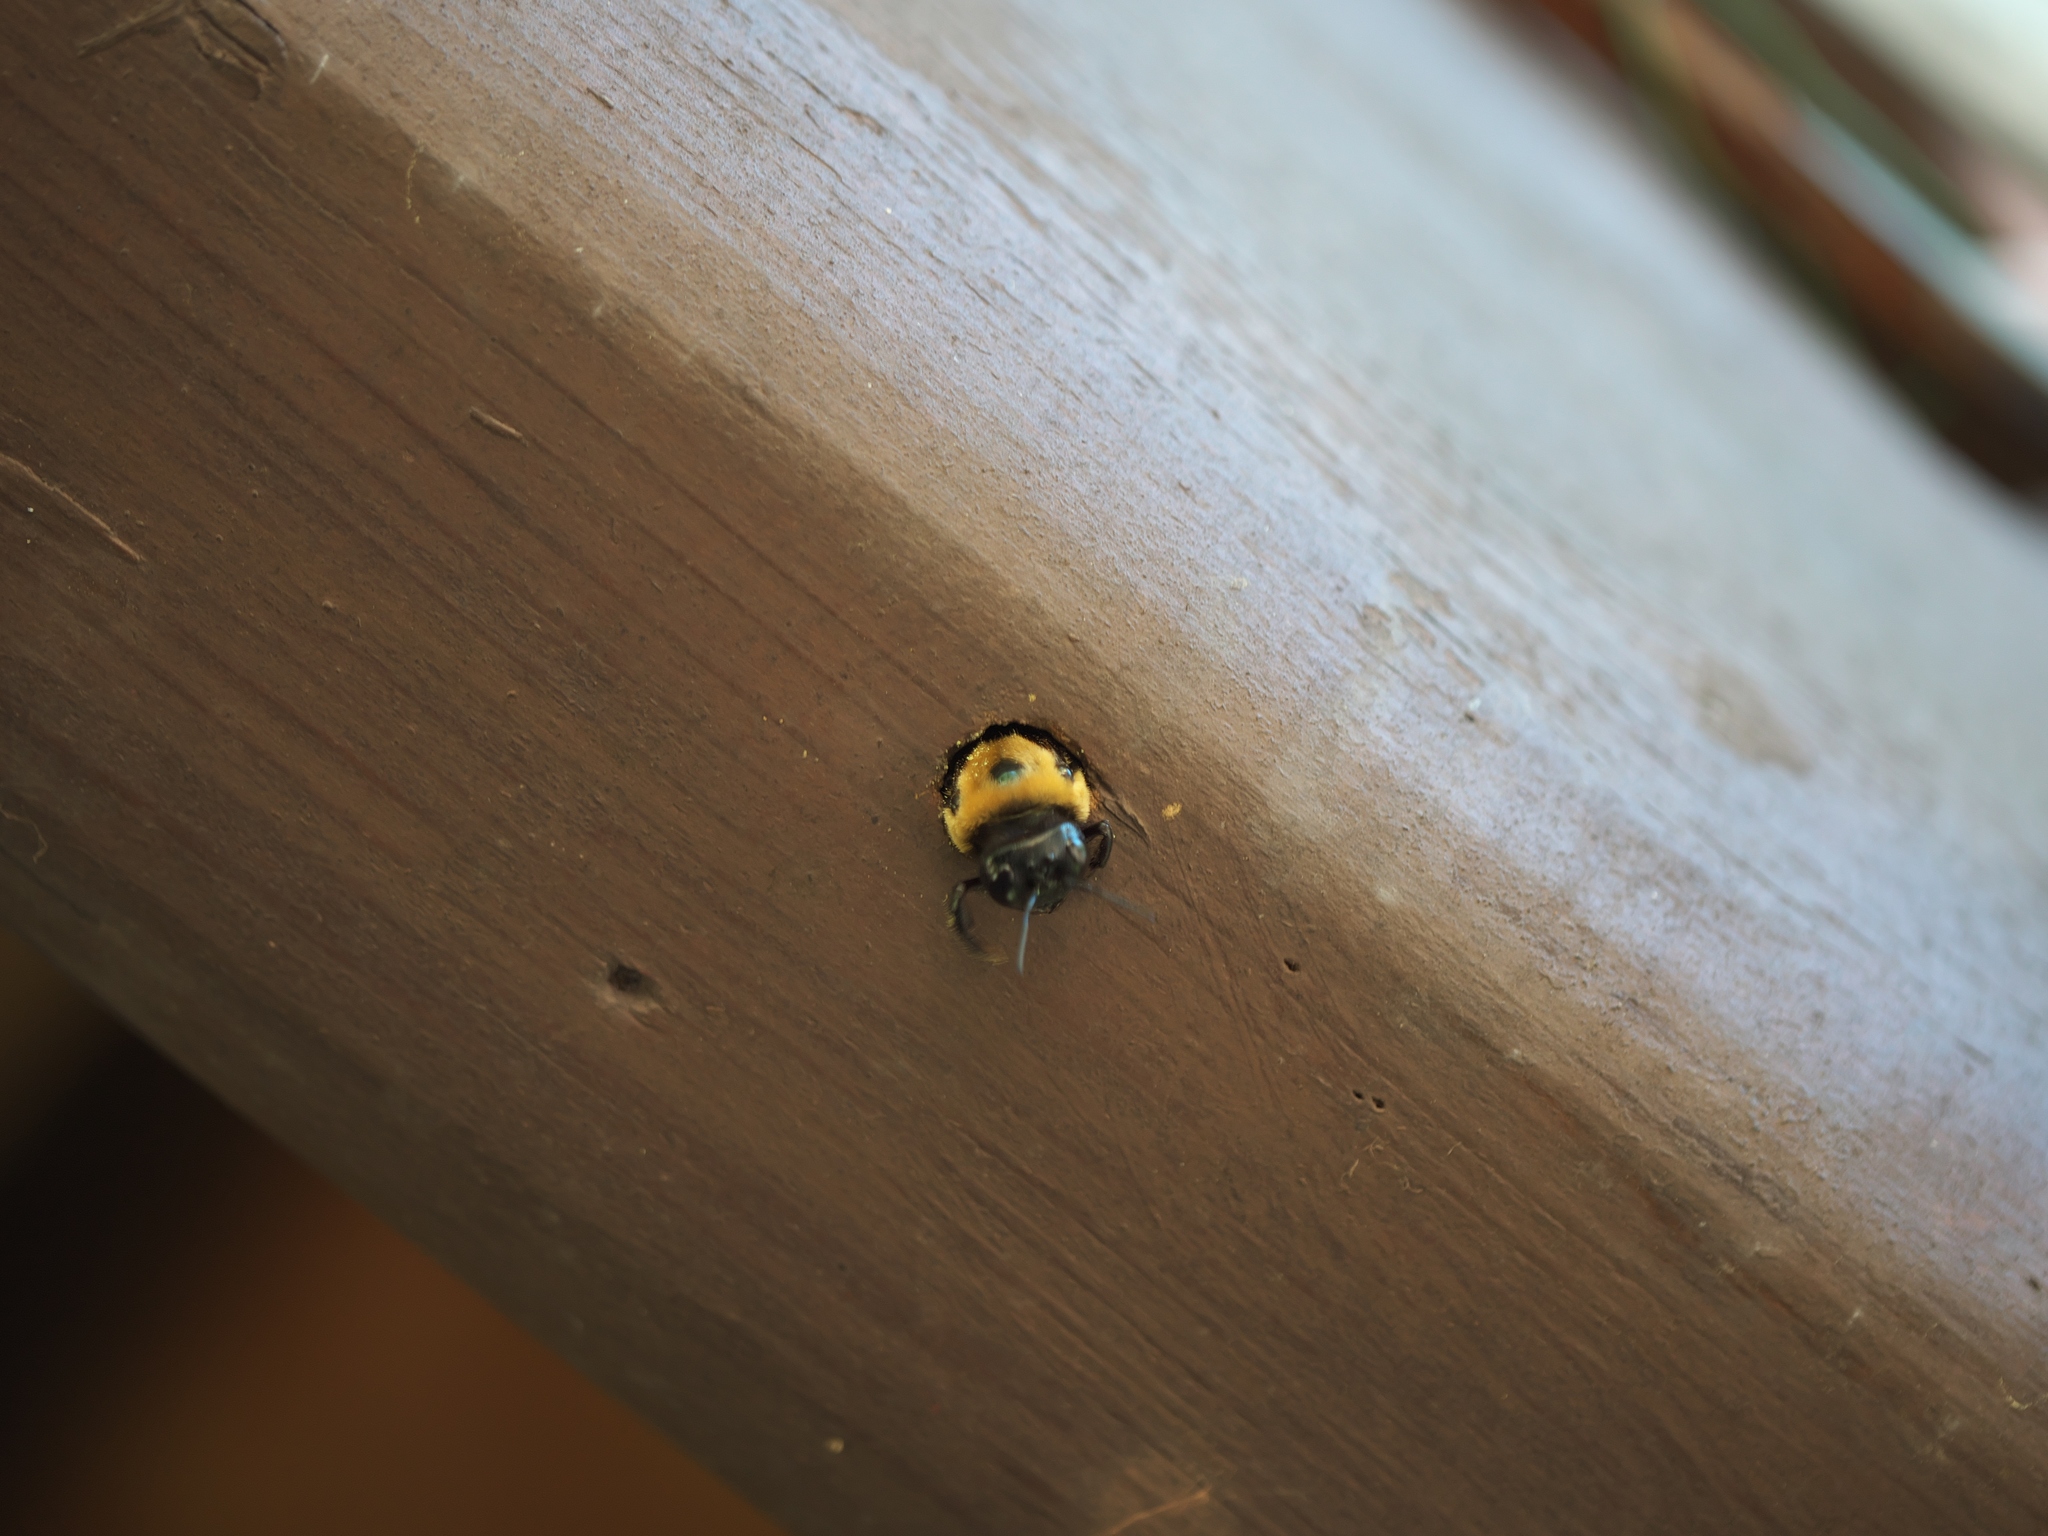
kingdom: Animalia
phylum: Arthropoda
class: Insecta
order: Hymenoptera
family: Apidae
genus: Xylocopa
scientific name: Xylocopa virginica
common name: Carpenter bee
